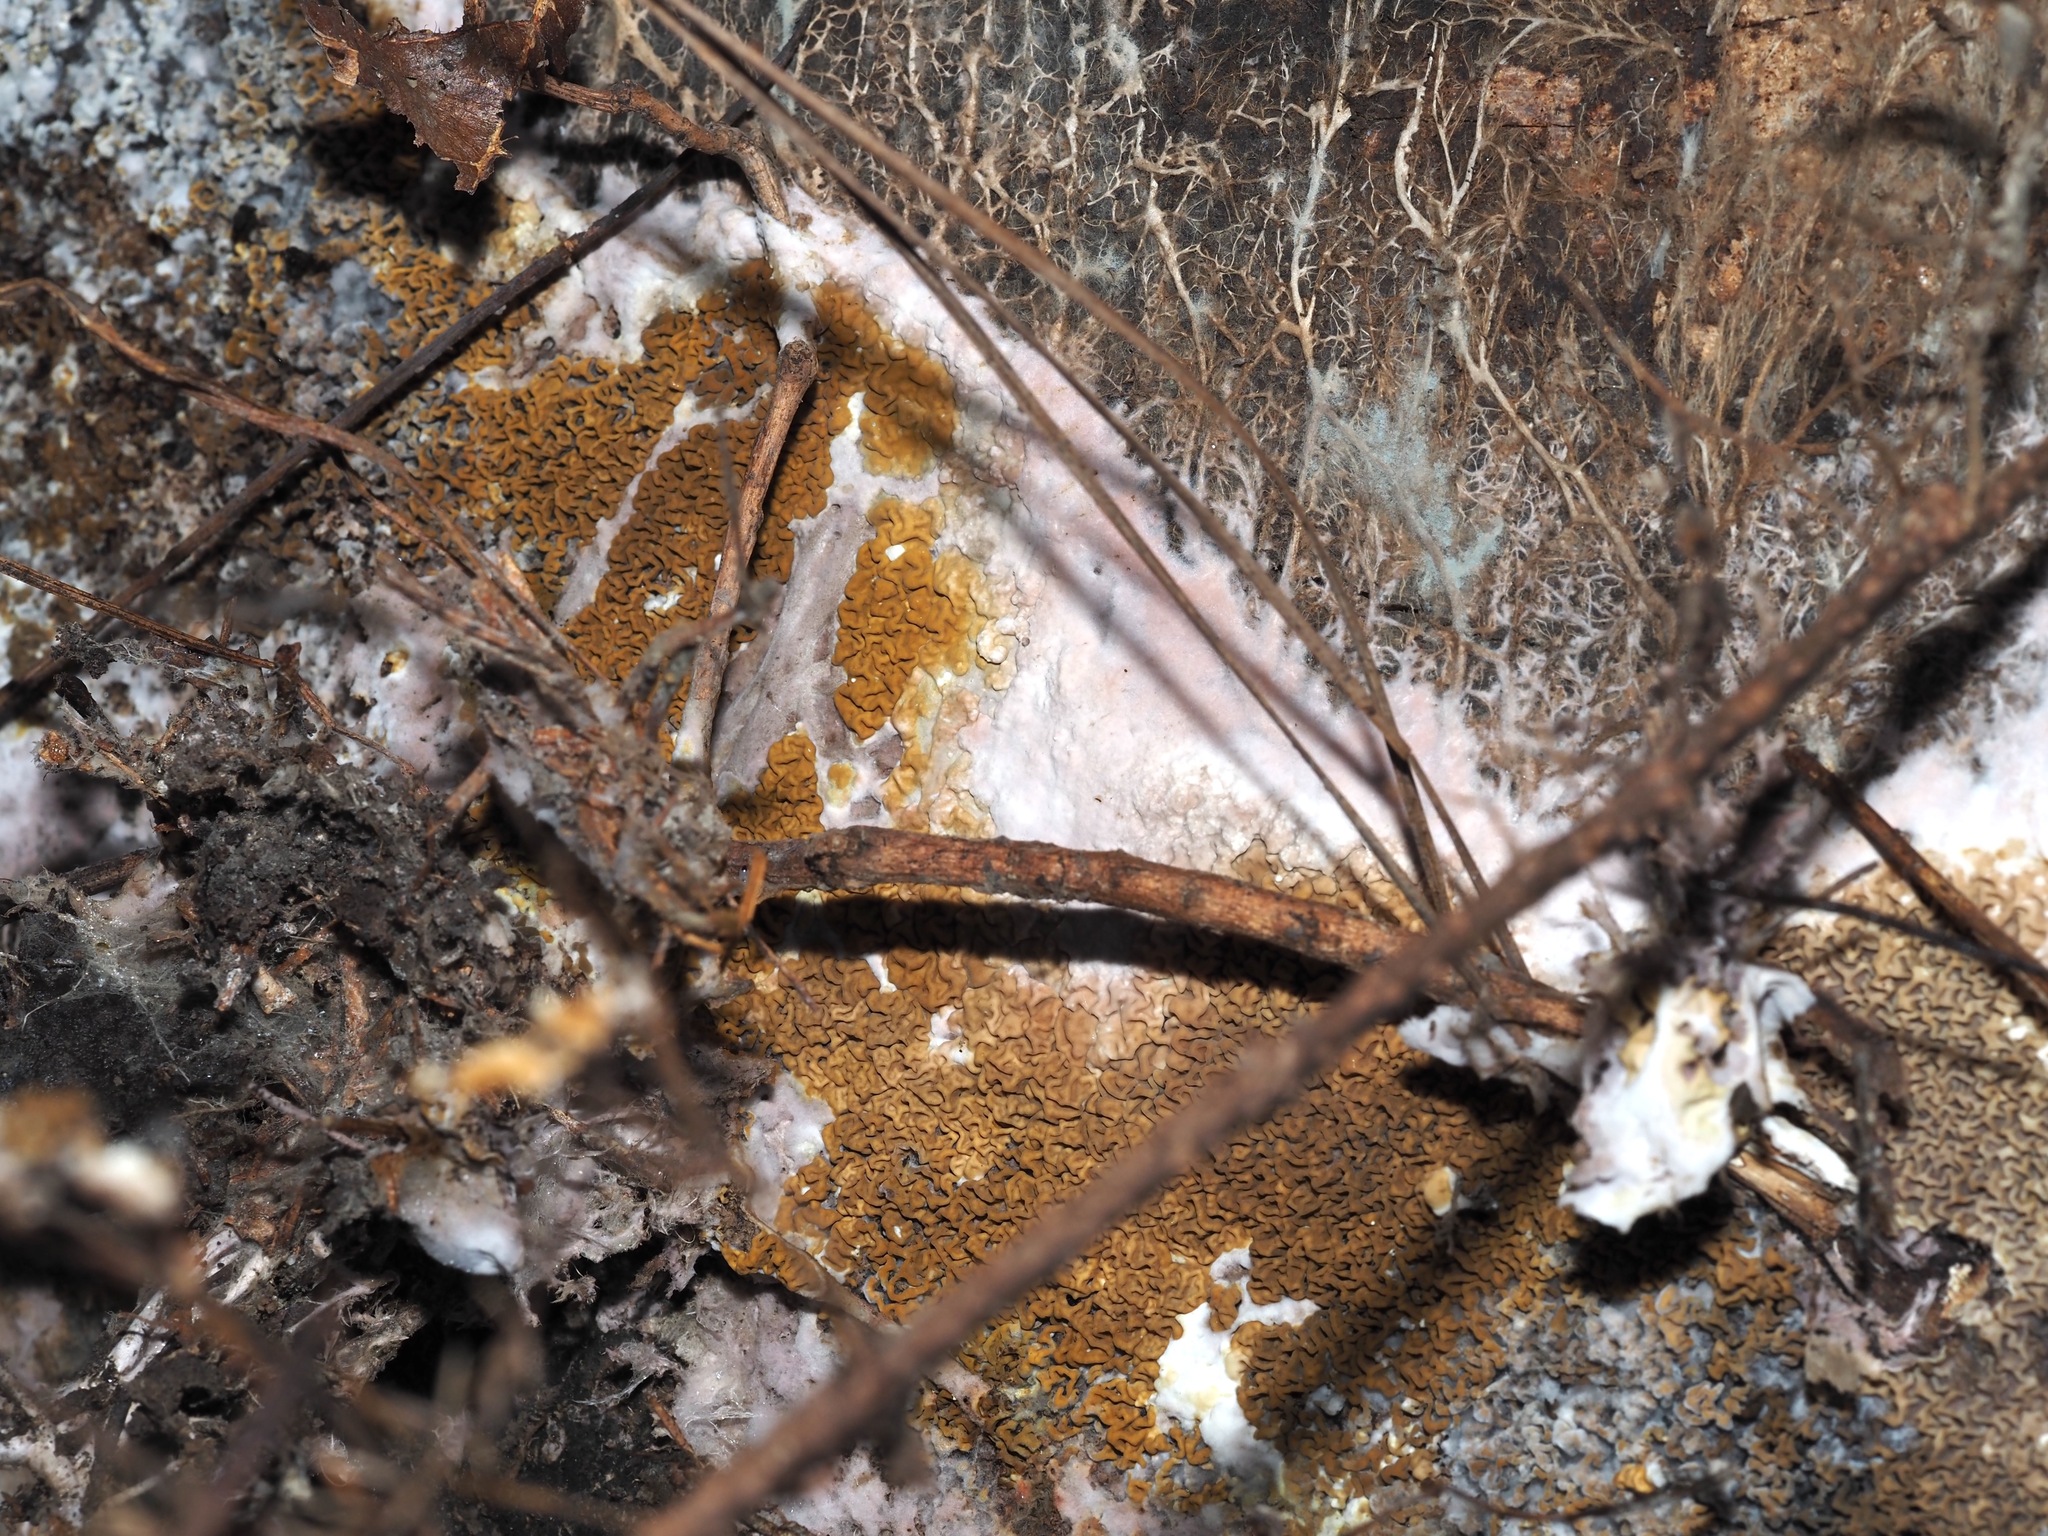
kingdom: Fungi
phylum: Basidiomycota
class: Agaricomycetes
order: Boletales
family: Serpulaceae
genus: Serpula
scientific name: Serpula himantioides
